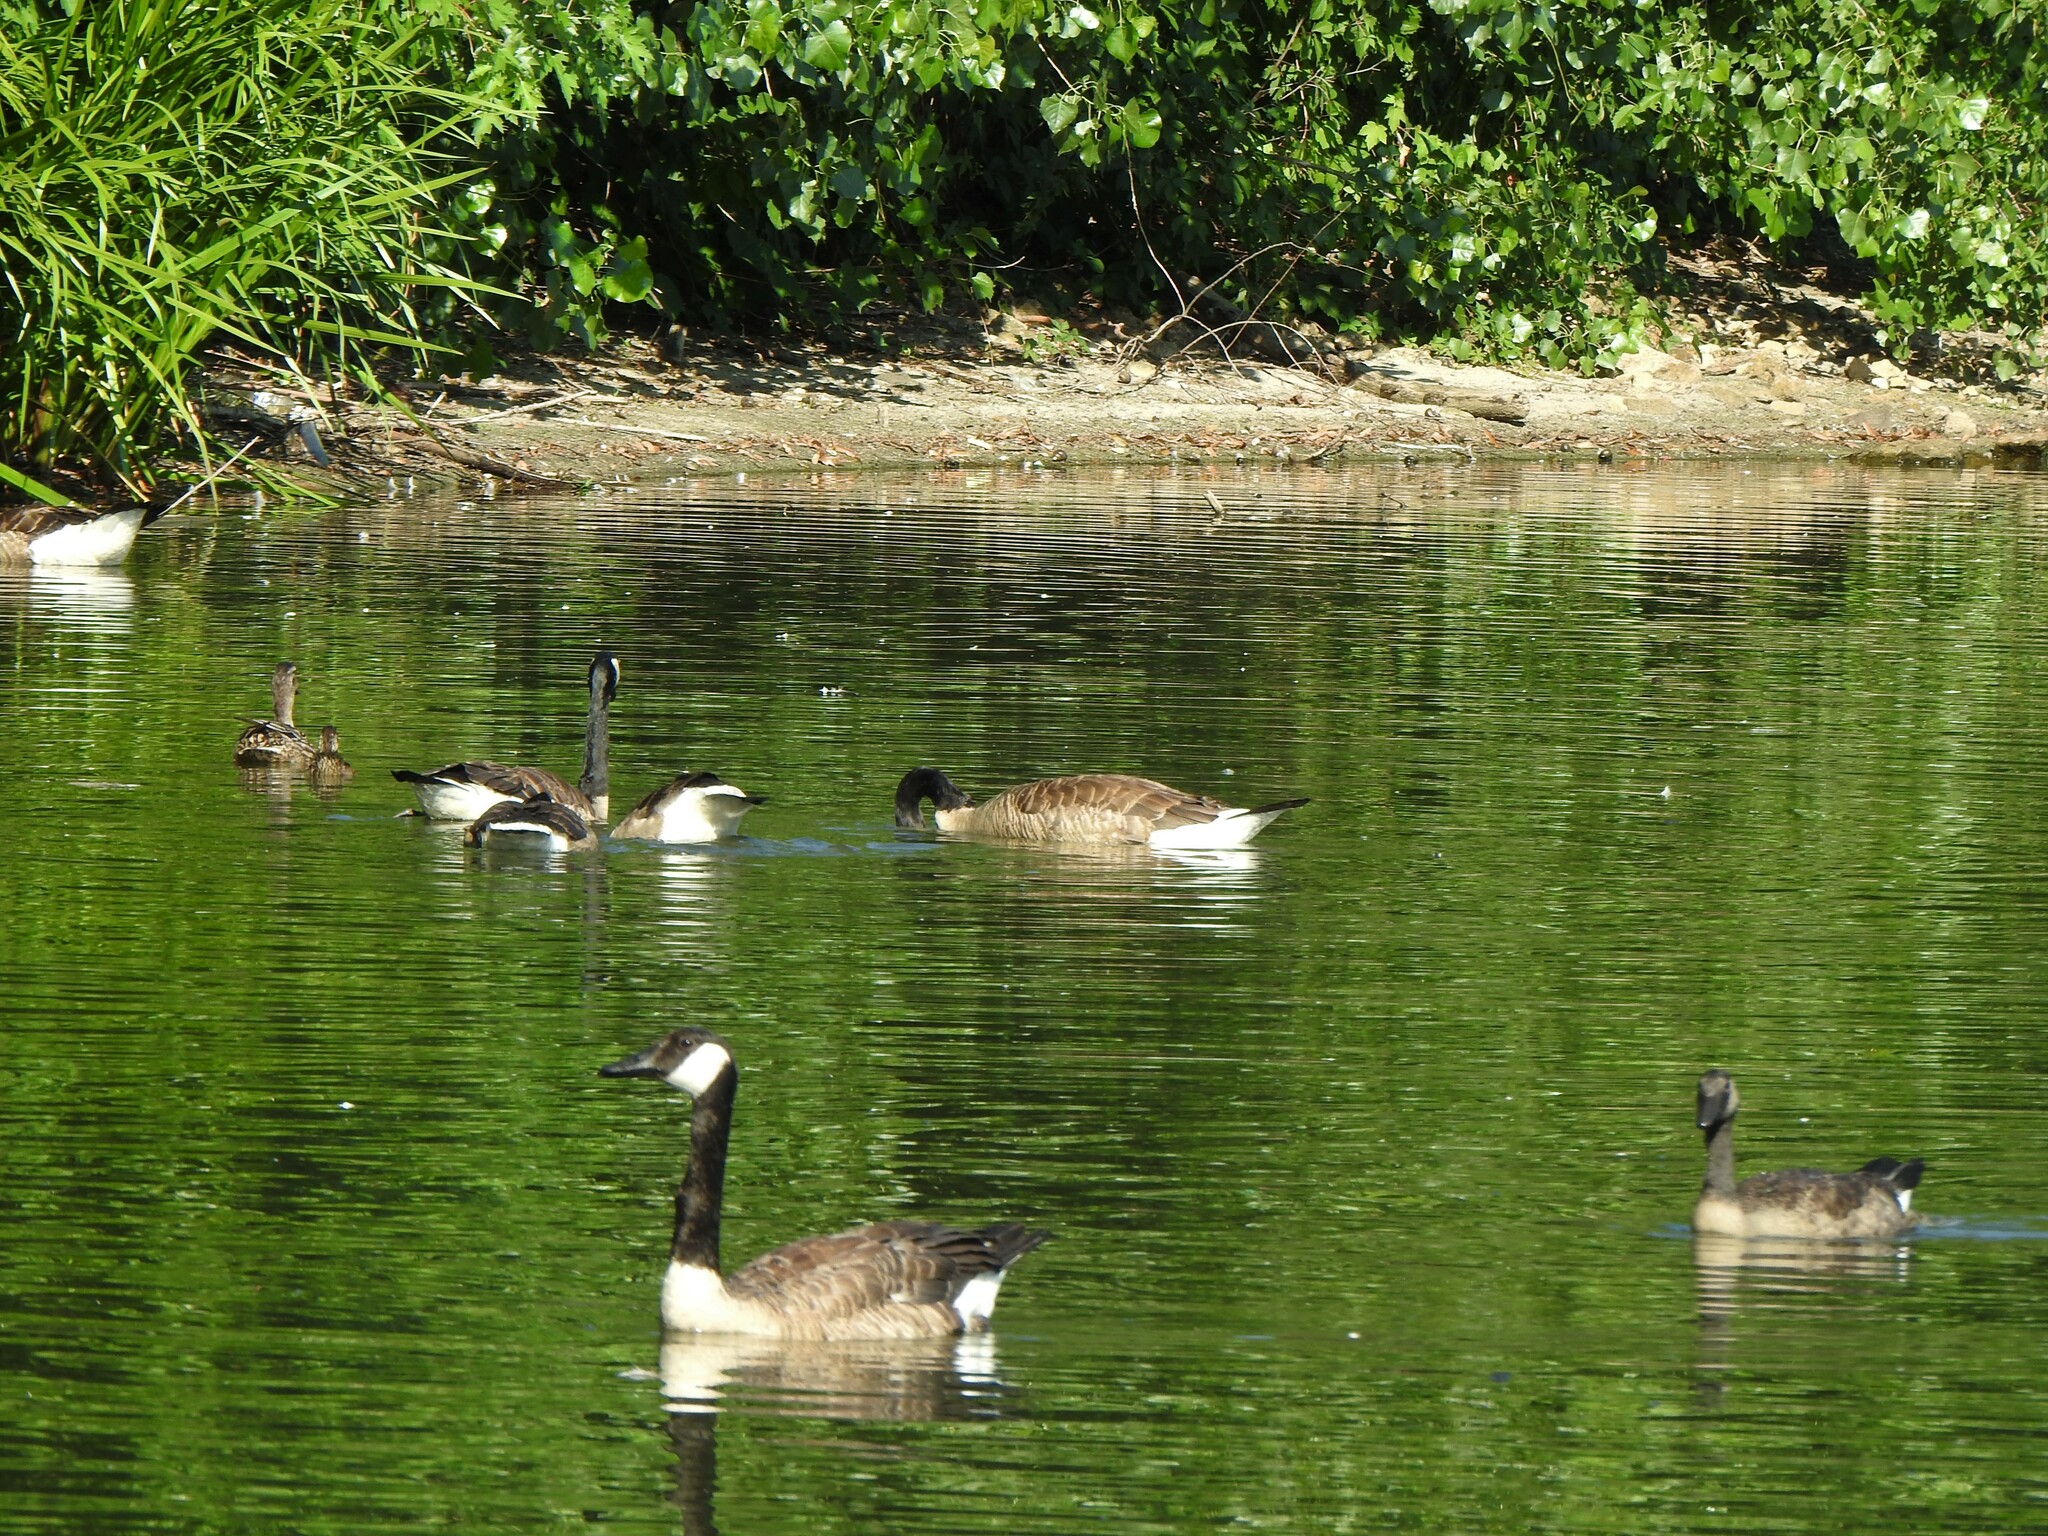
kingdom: Animalia
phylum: Chordata
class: Aves
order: Anseriformes
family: Anatidae
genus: Branta
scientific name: Branta canadensis
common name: Canada goose
